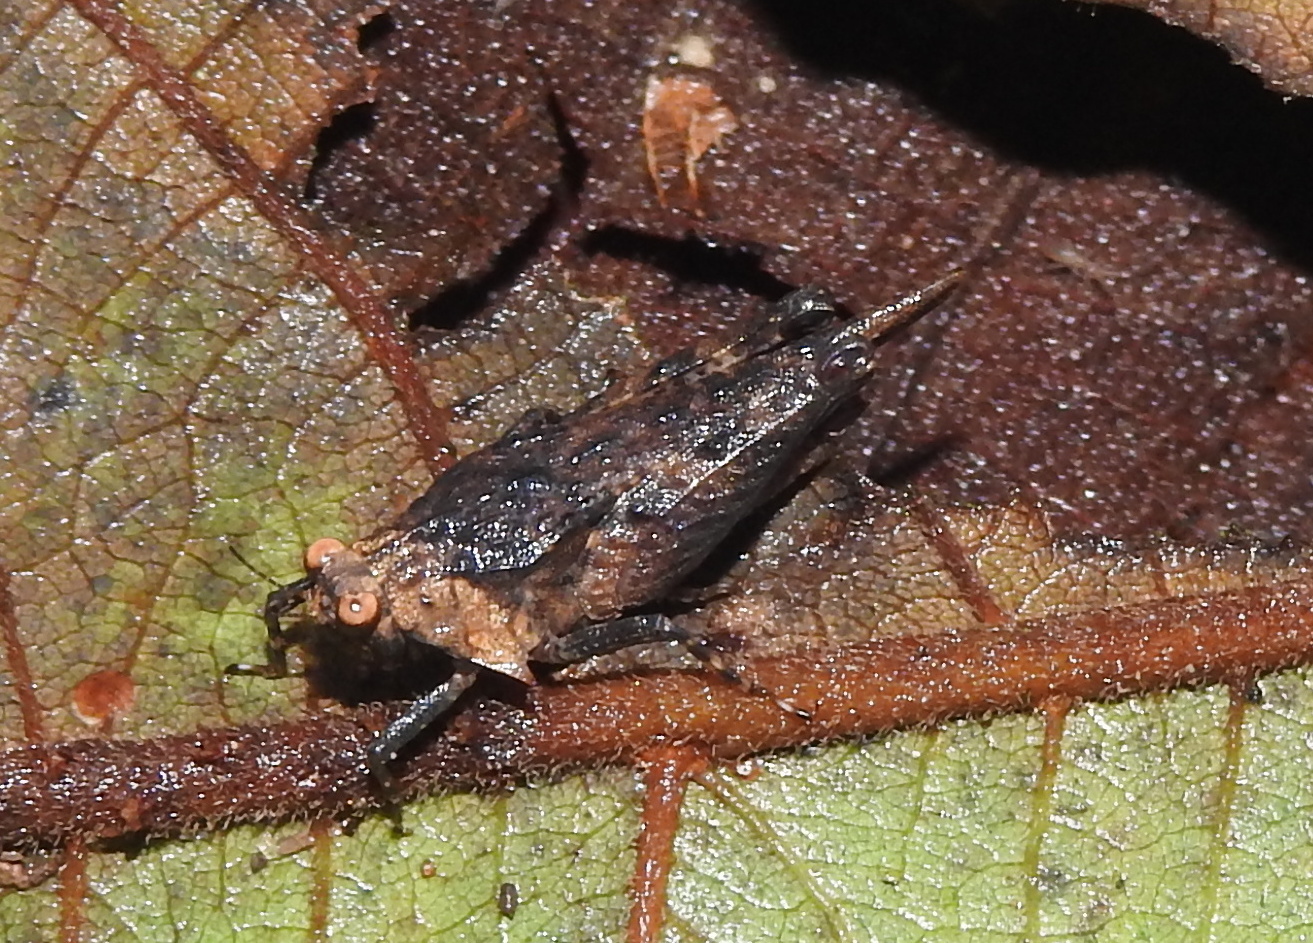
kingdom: Animalia
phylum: Arthropoda
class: Insecta
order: Orthoptera
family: Tetrigidae
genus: Criotettix
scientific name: Criotettix robustus
